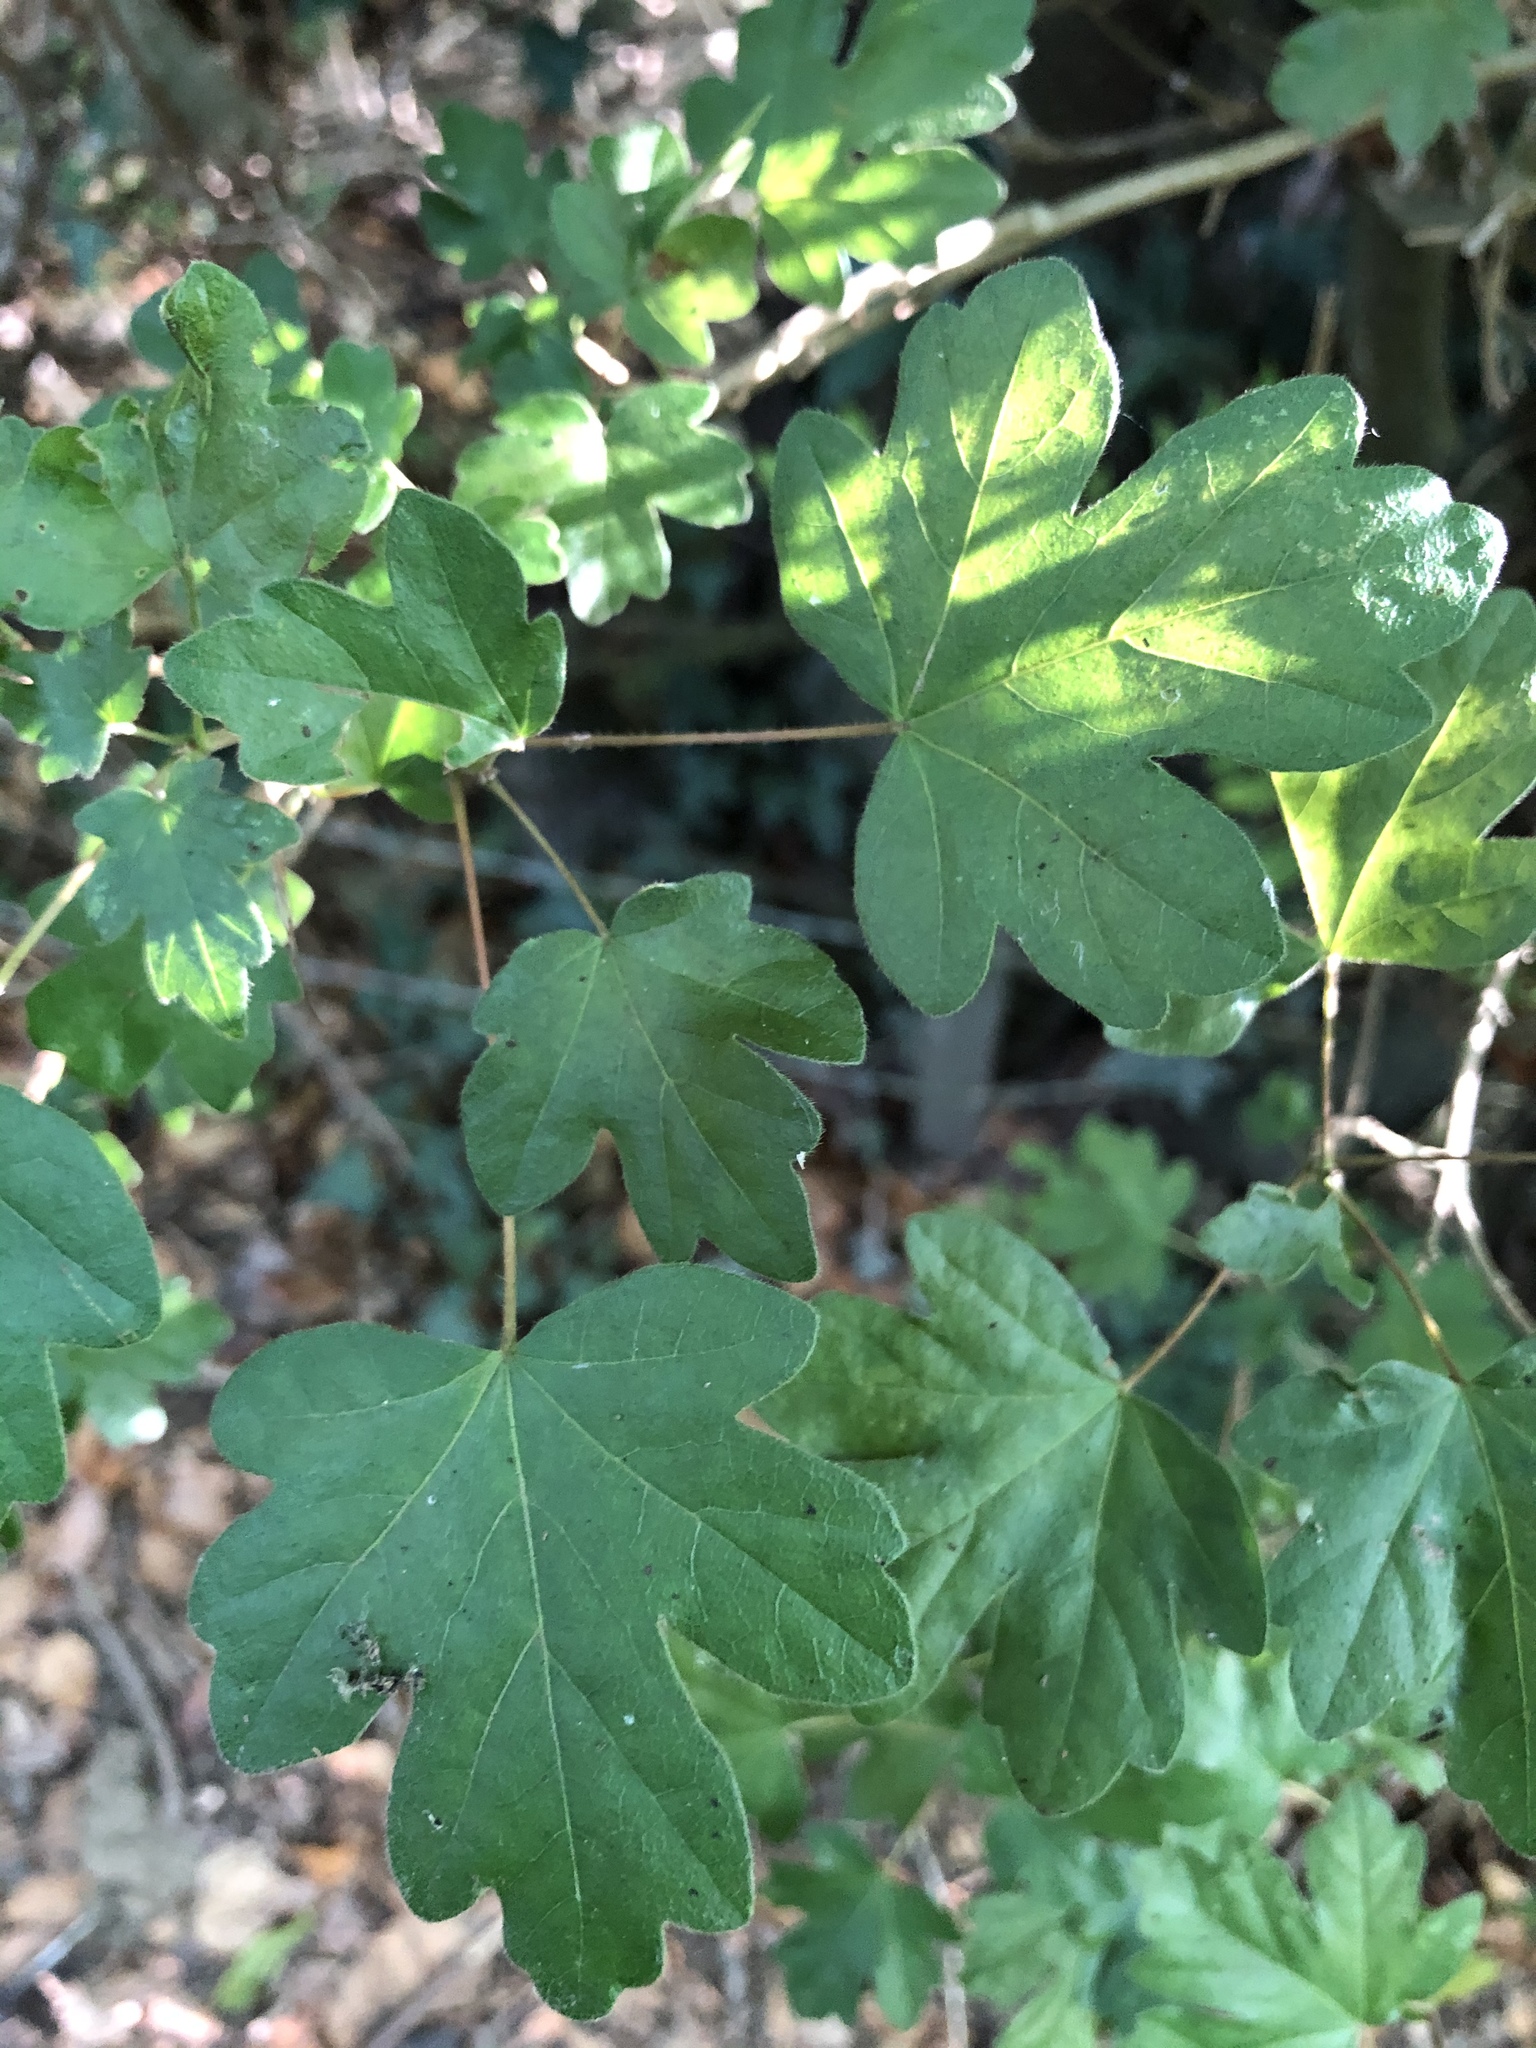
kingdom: Plantae
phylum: Tracheophyta
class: Magnoliopsida
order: Sapindales
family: Sapindaceae
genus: Acer
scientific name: Acer campestre
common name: Field maple
